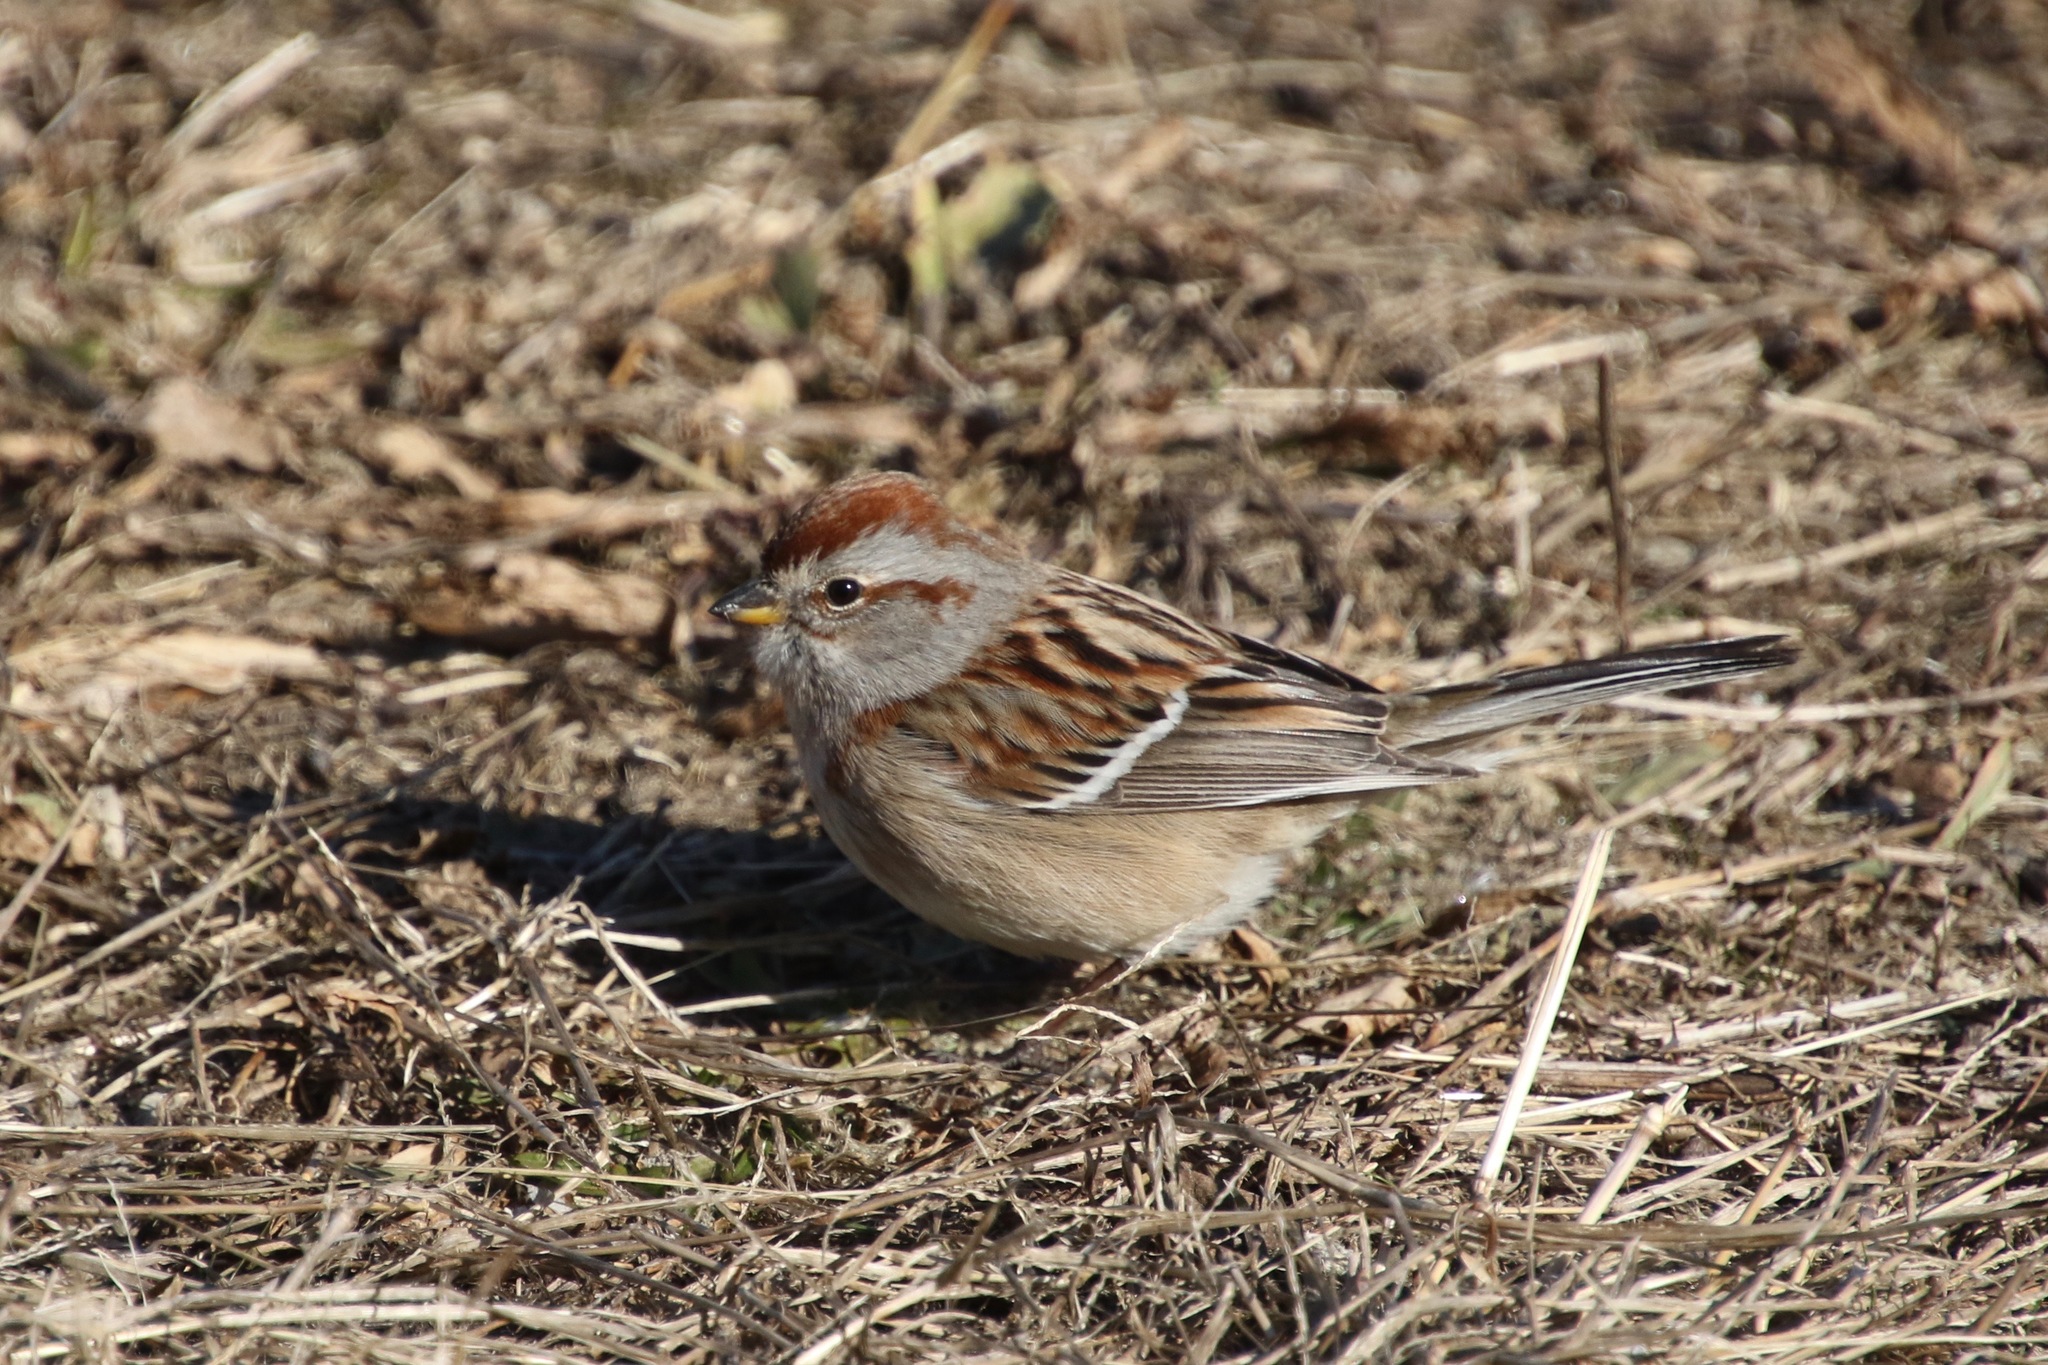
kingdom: Animalia
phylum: Chordata
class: Aves
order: Passeriformes
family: Passerellidae
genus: Spizelloides
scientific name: Spizelloides arborea
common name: American tree sparrow
